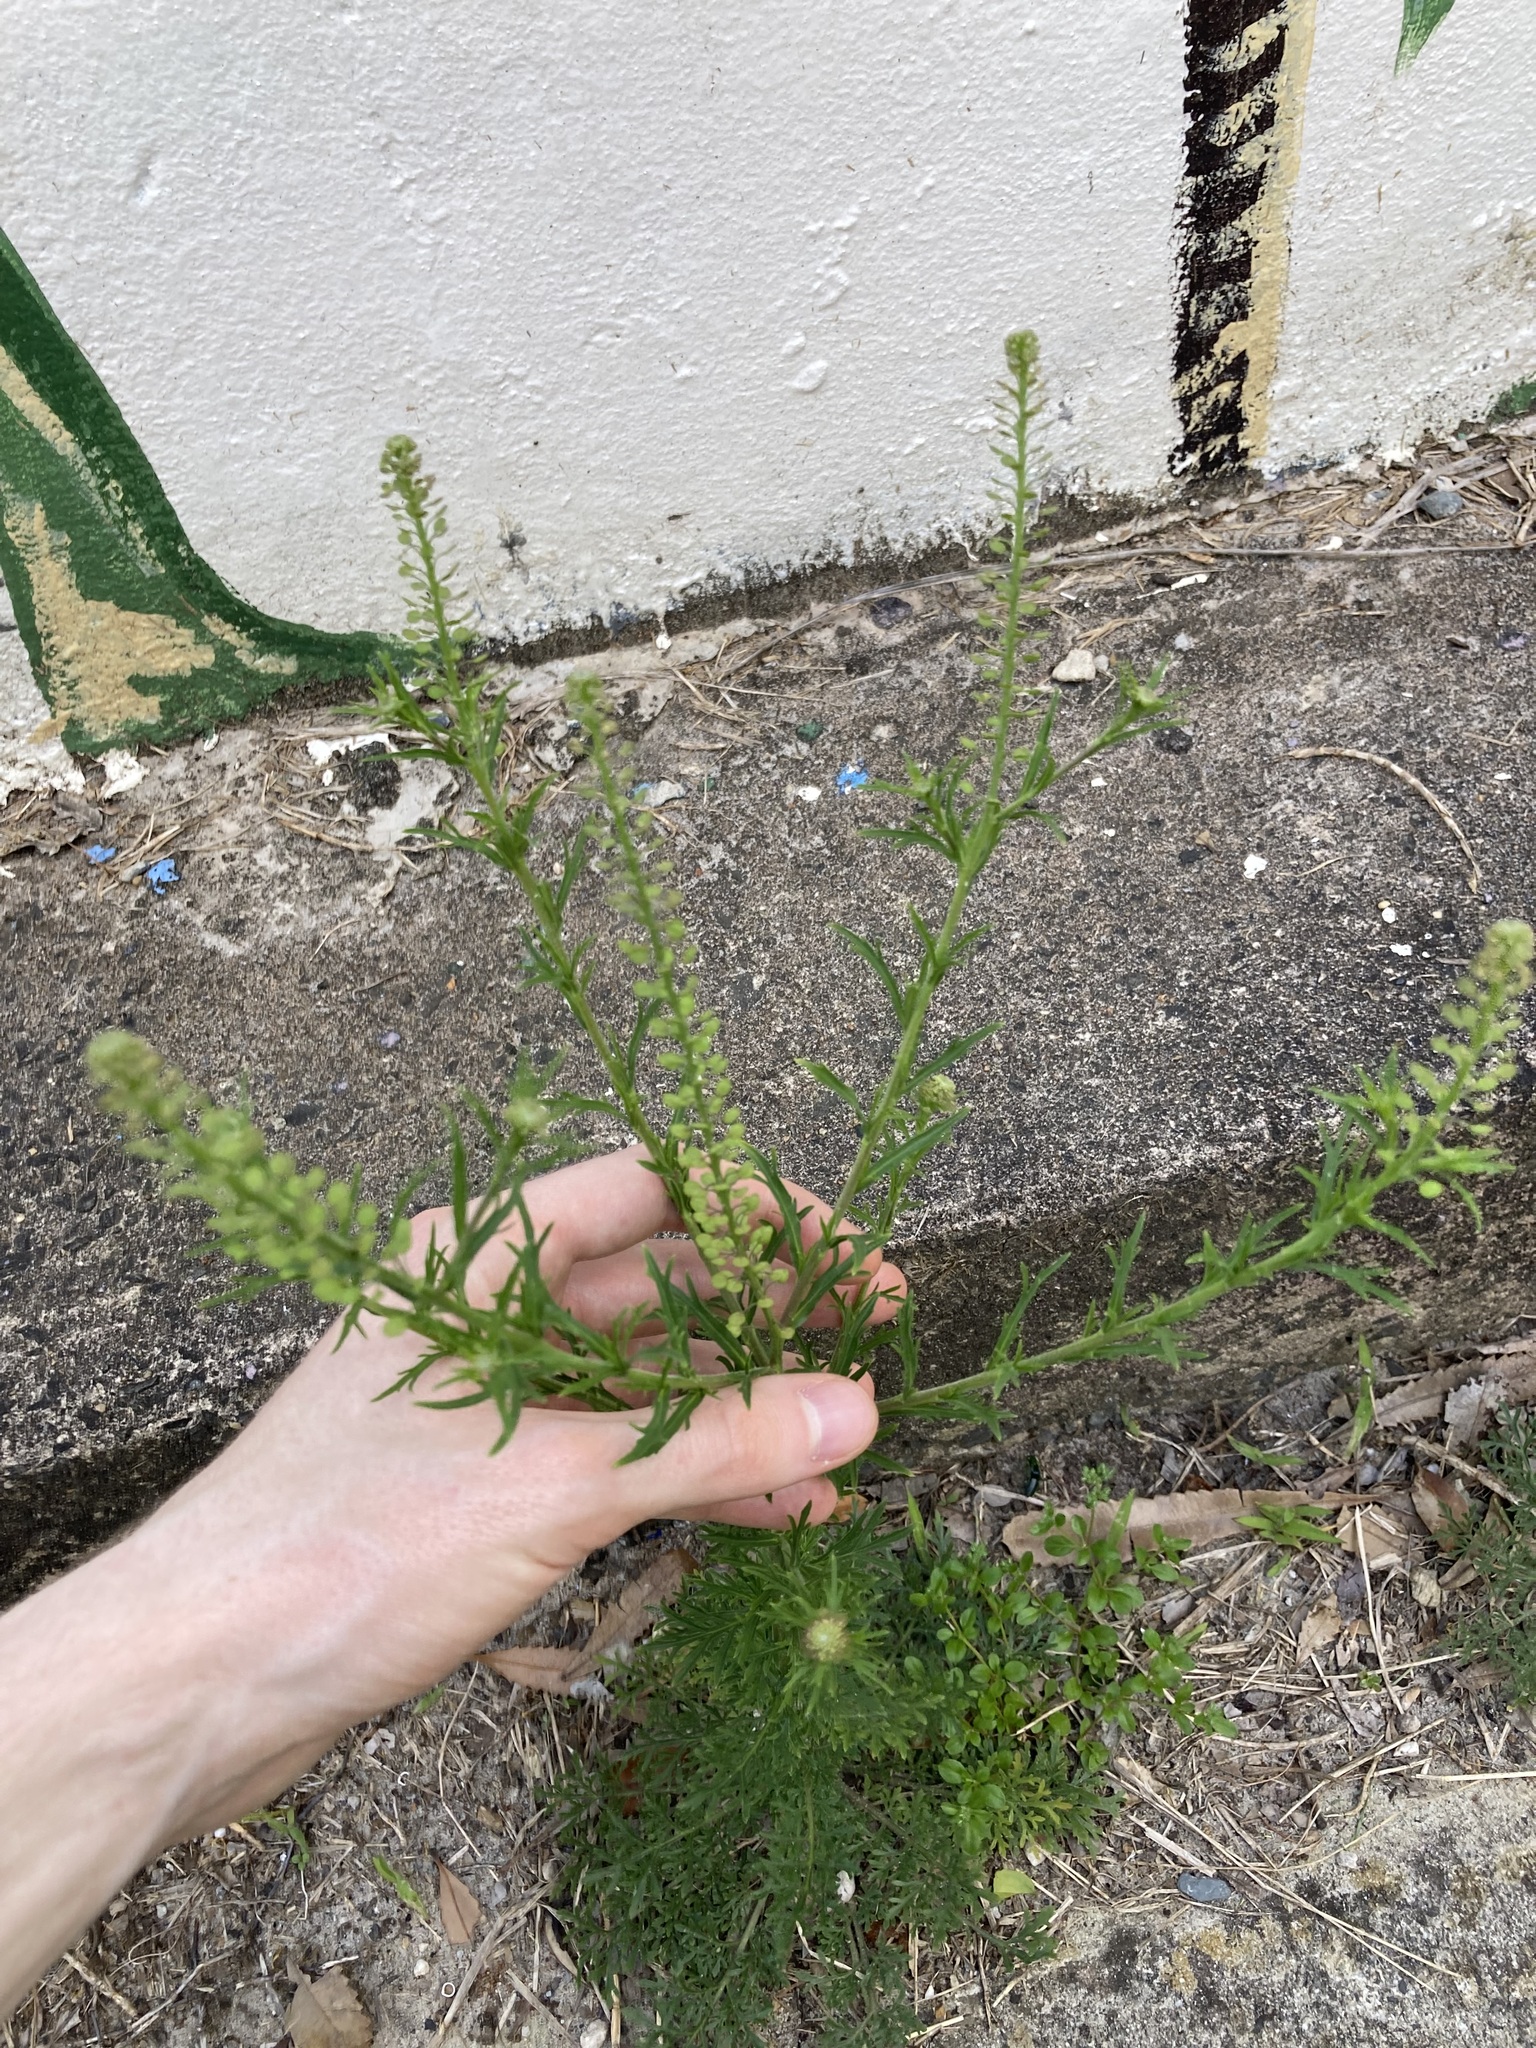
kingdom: Plantae
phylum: Tracheophyta
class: Magnoliopsida
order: Brassicales
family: Brassicaceae
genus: Lepidium
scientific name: Lepidium bonariense
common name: Argentine pepperwort
